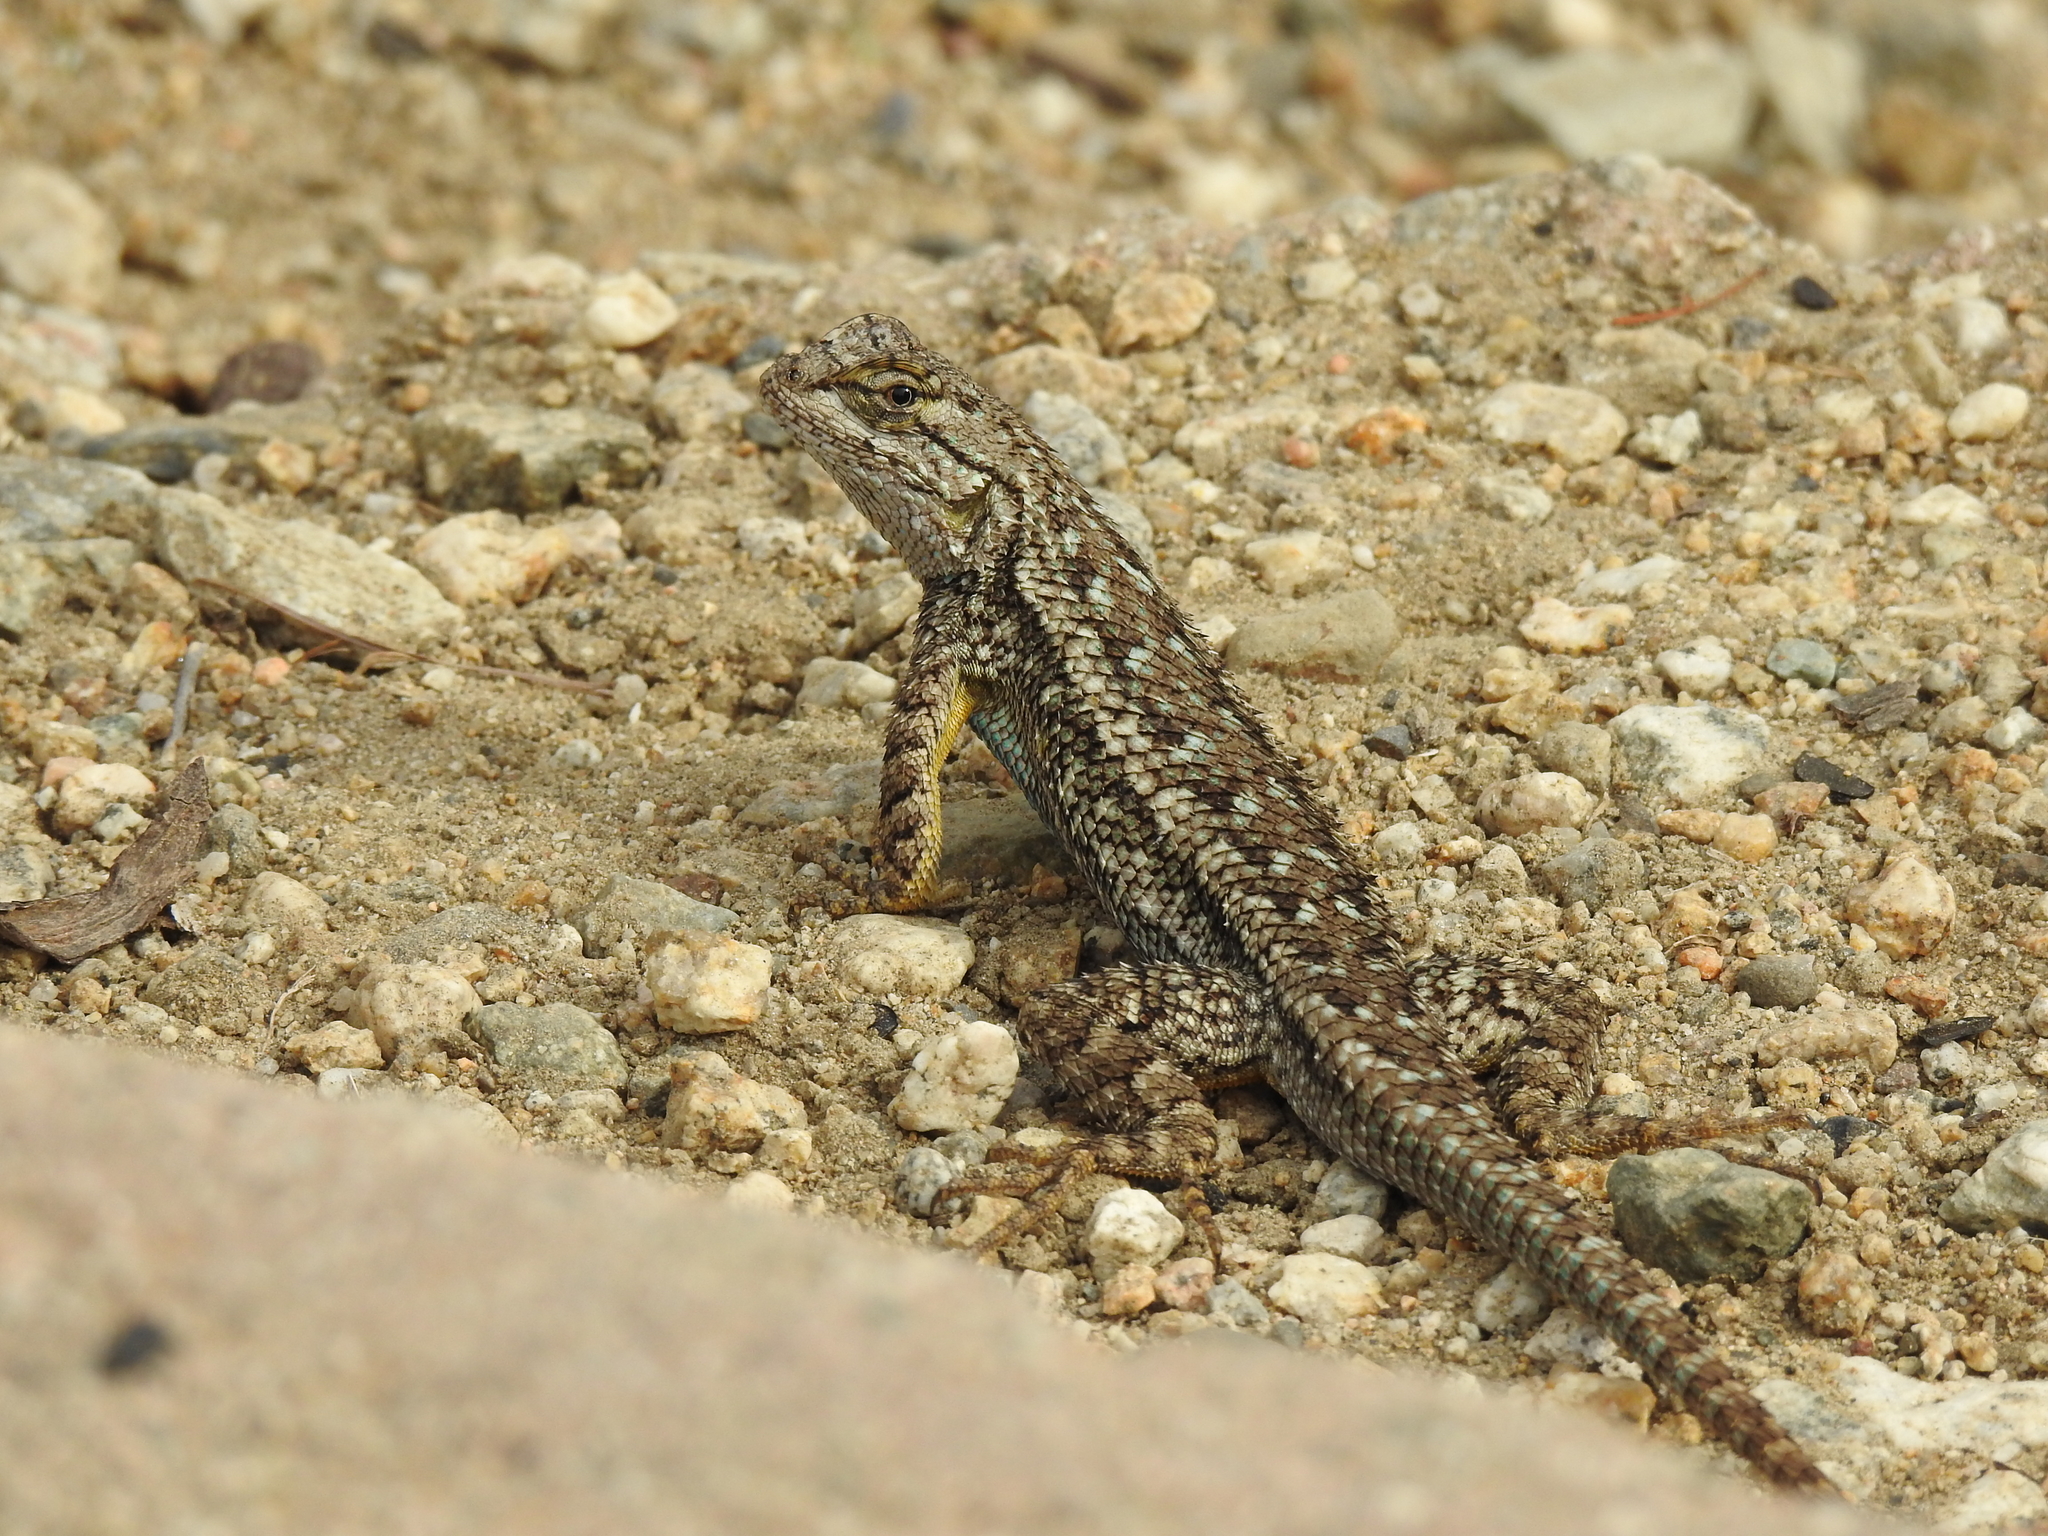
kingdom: Animalia
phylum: Chordata
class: Squamata
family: Phrynosomatidae
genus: Sceloporus
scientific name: Sceloporus occidentalis
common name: Western fence lizard
